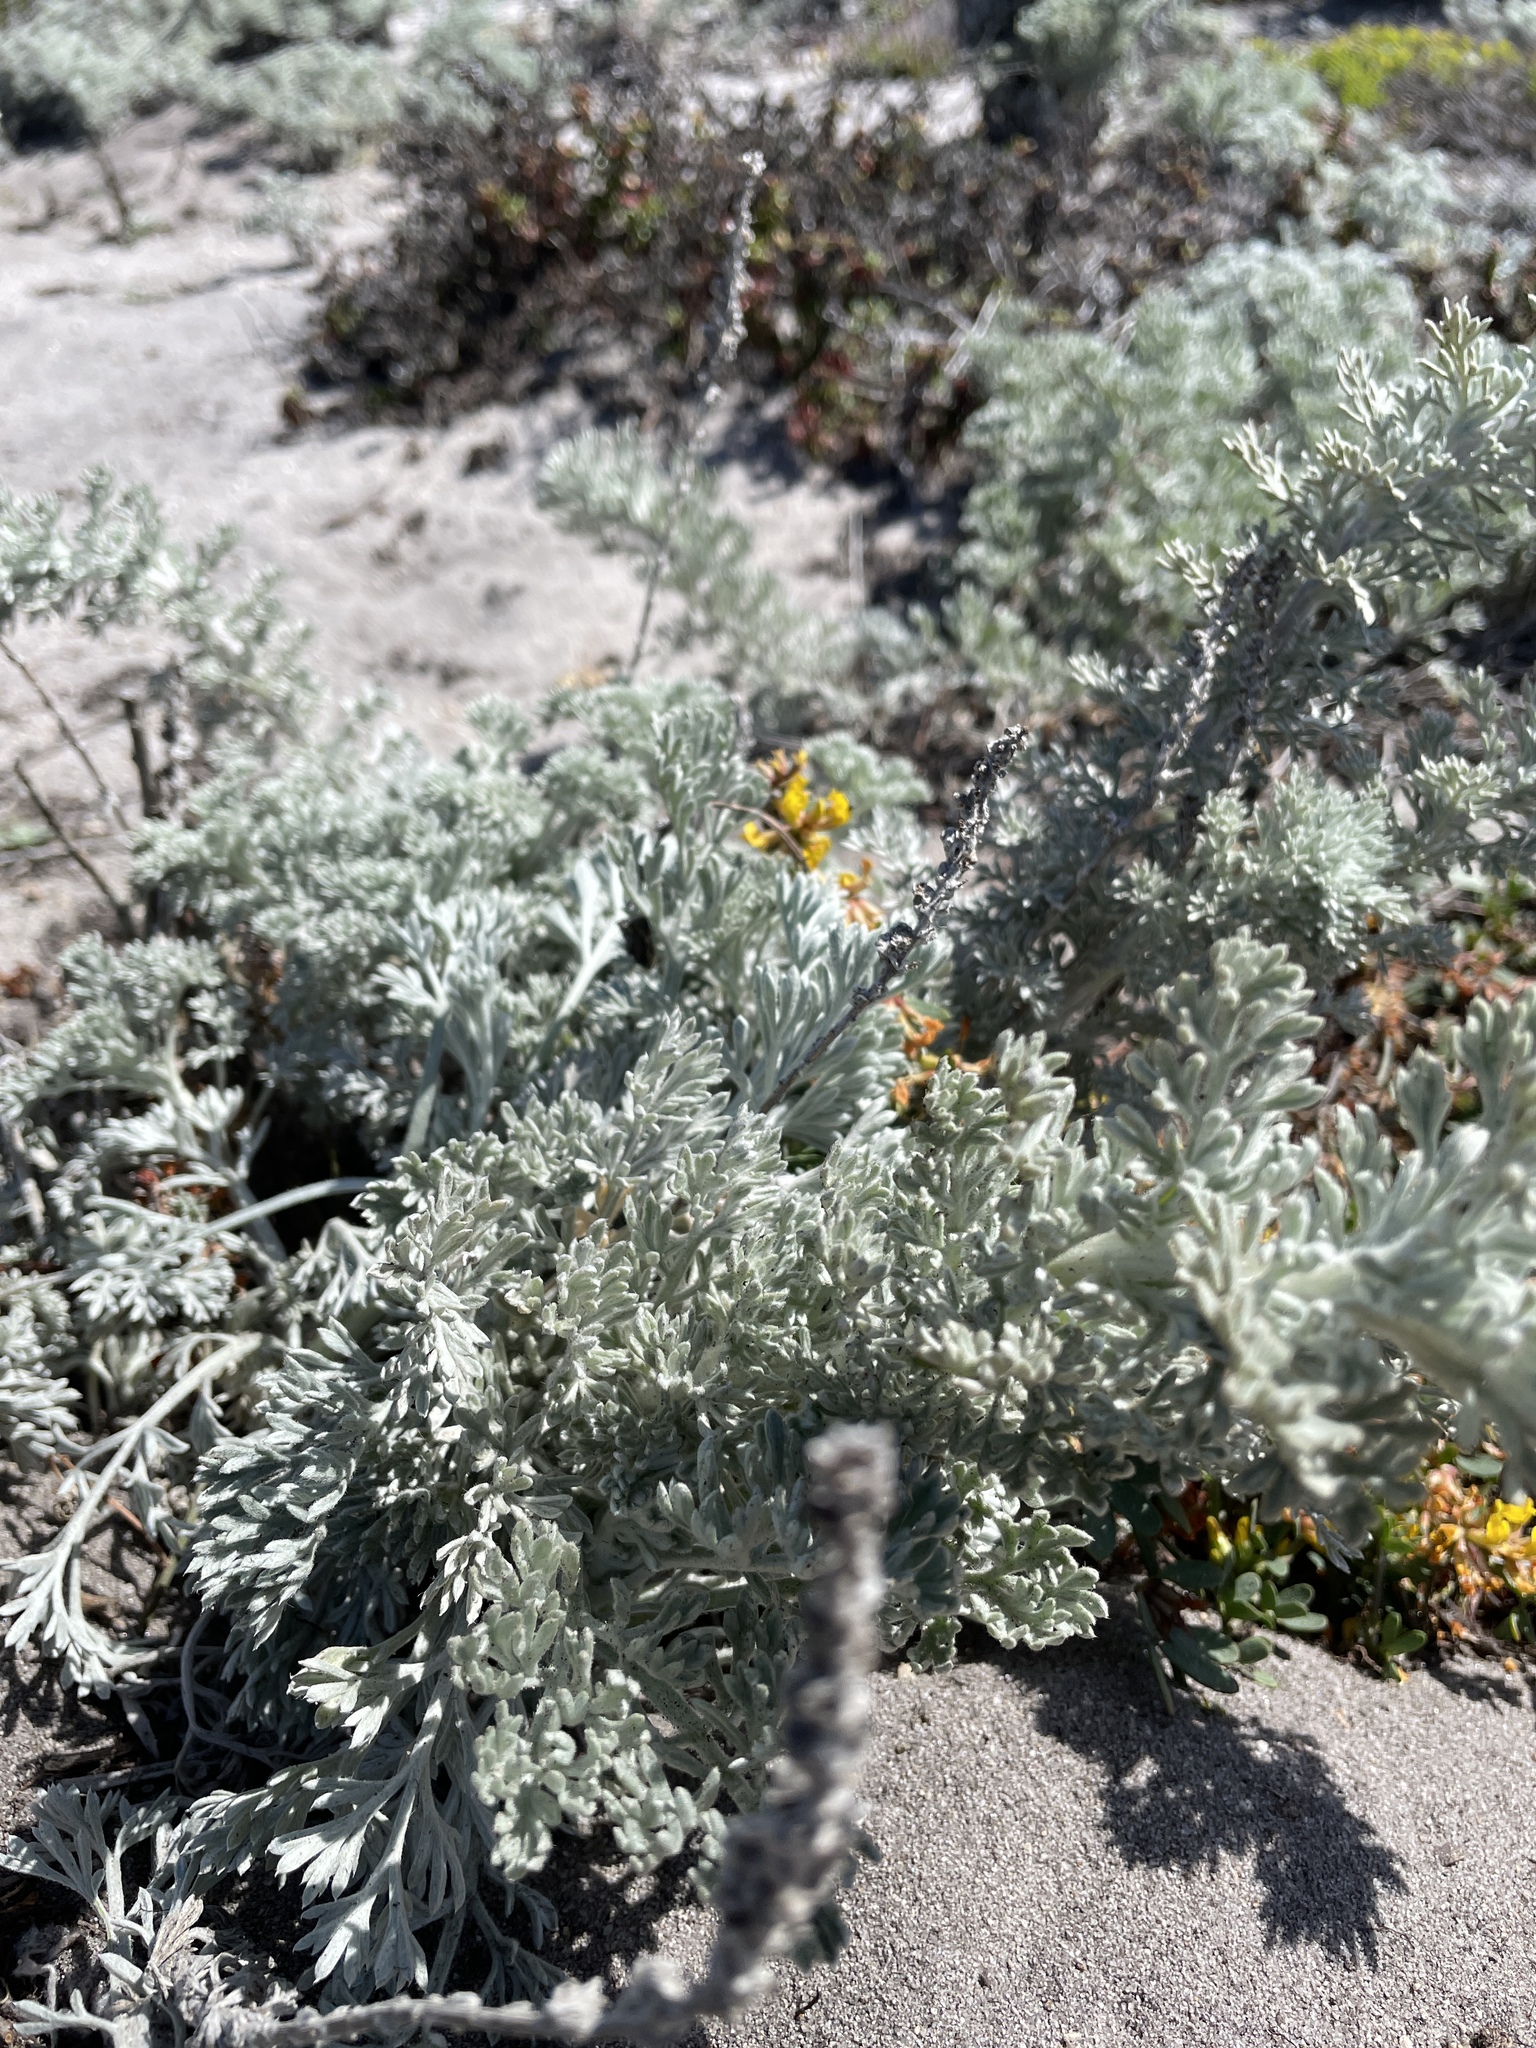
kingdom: Plantae
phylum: Tracheophyta
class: Magnoliopsida
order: Asterales
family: Asteraceae
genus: Artemisia
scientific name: Artemisia pycnocephala
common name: Coastal sagewort
